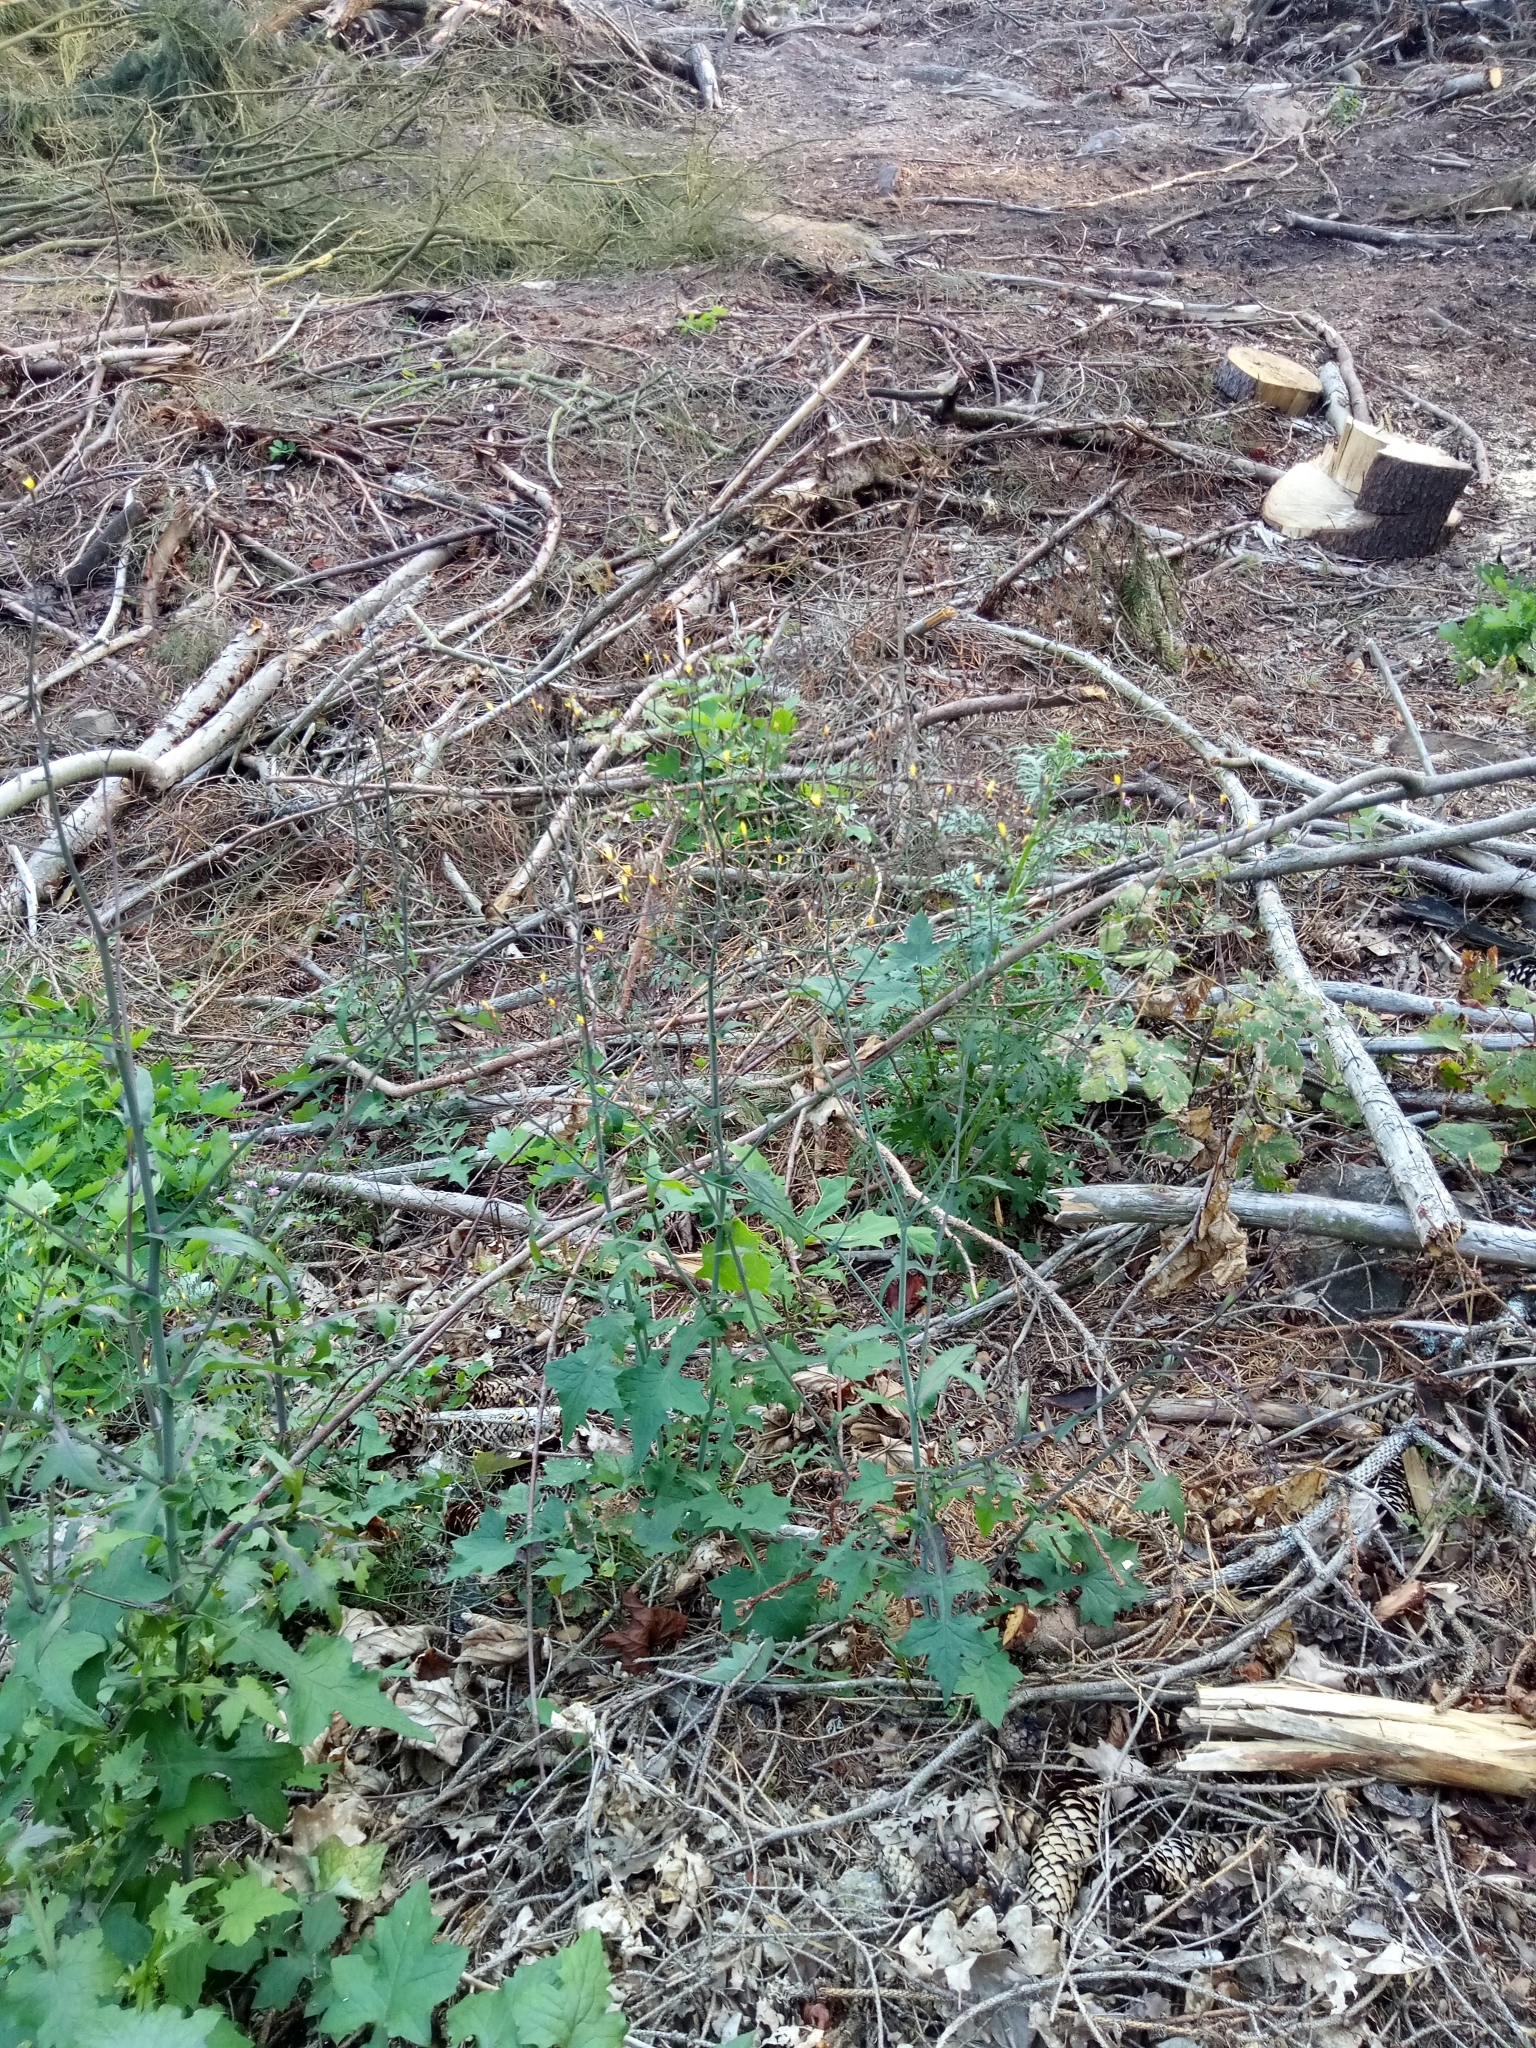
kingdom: Plantae
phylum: Tracheophyta
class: Magnoliopsida
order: Asterales
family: Asteraceae
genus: Mycelis
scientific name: Mycelis muralis
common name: Wall lettuce
